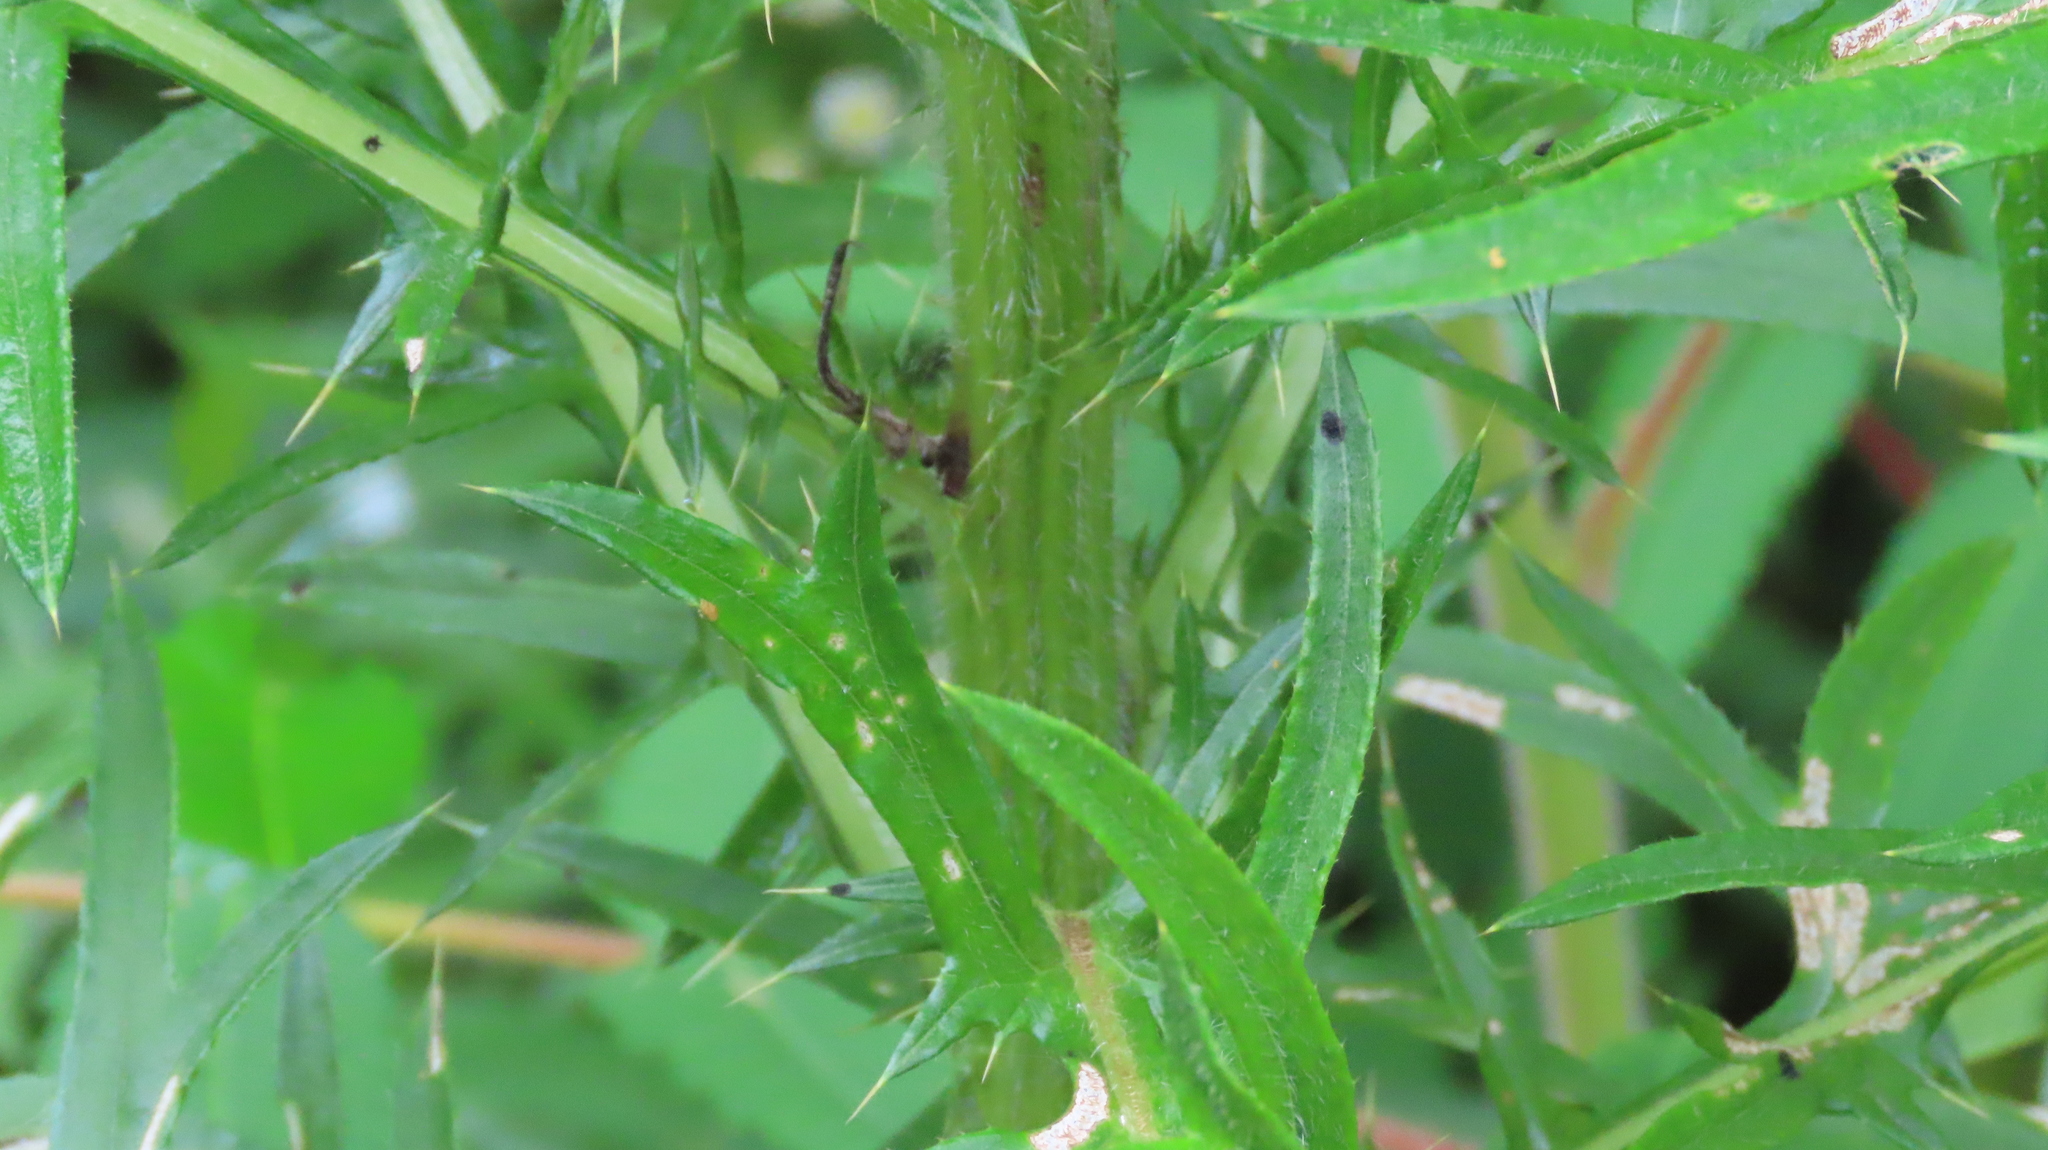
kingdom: Plantae
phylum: Tracheophyta
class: Magnoliopsida
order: Asterales
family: Asteraceae
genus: Cirsium
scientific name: Cirsium discolor
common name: Field thistle
